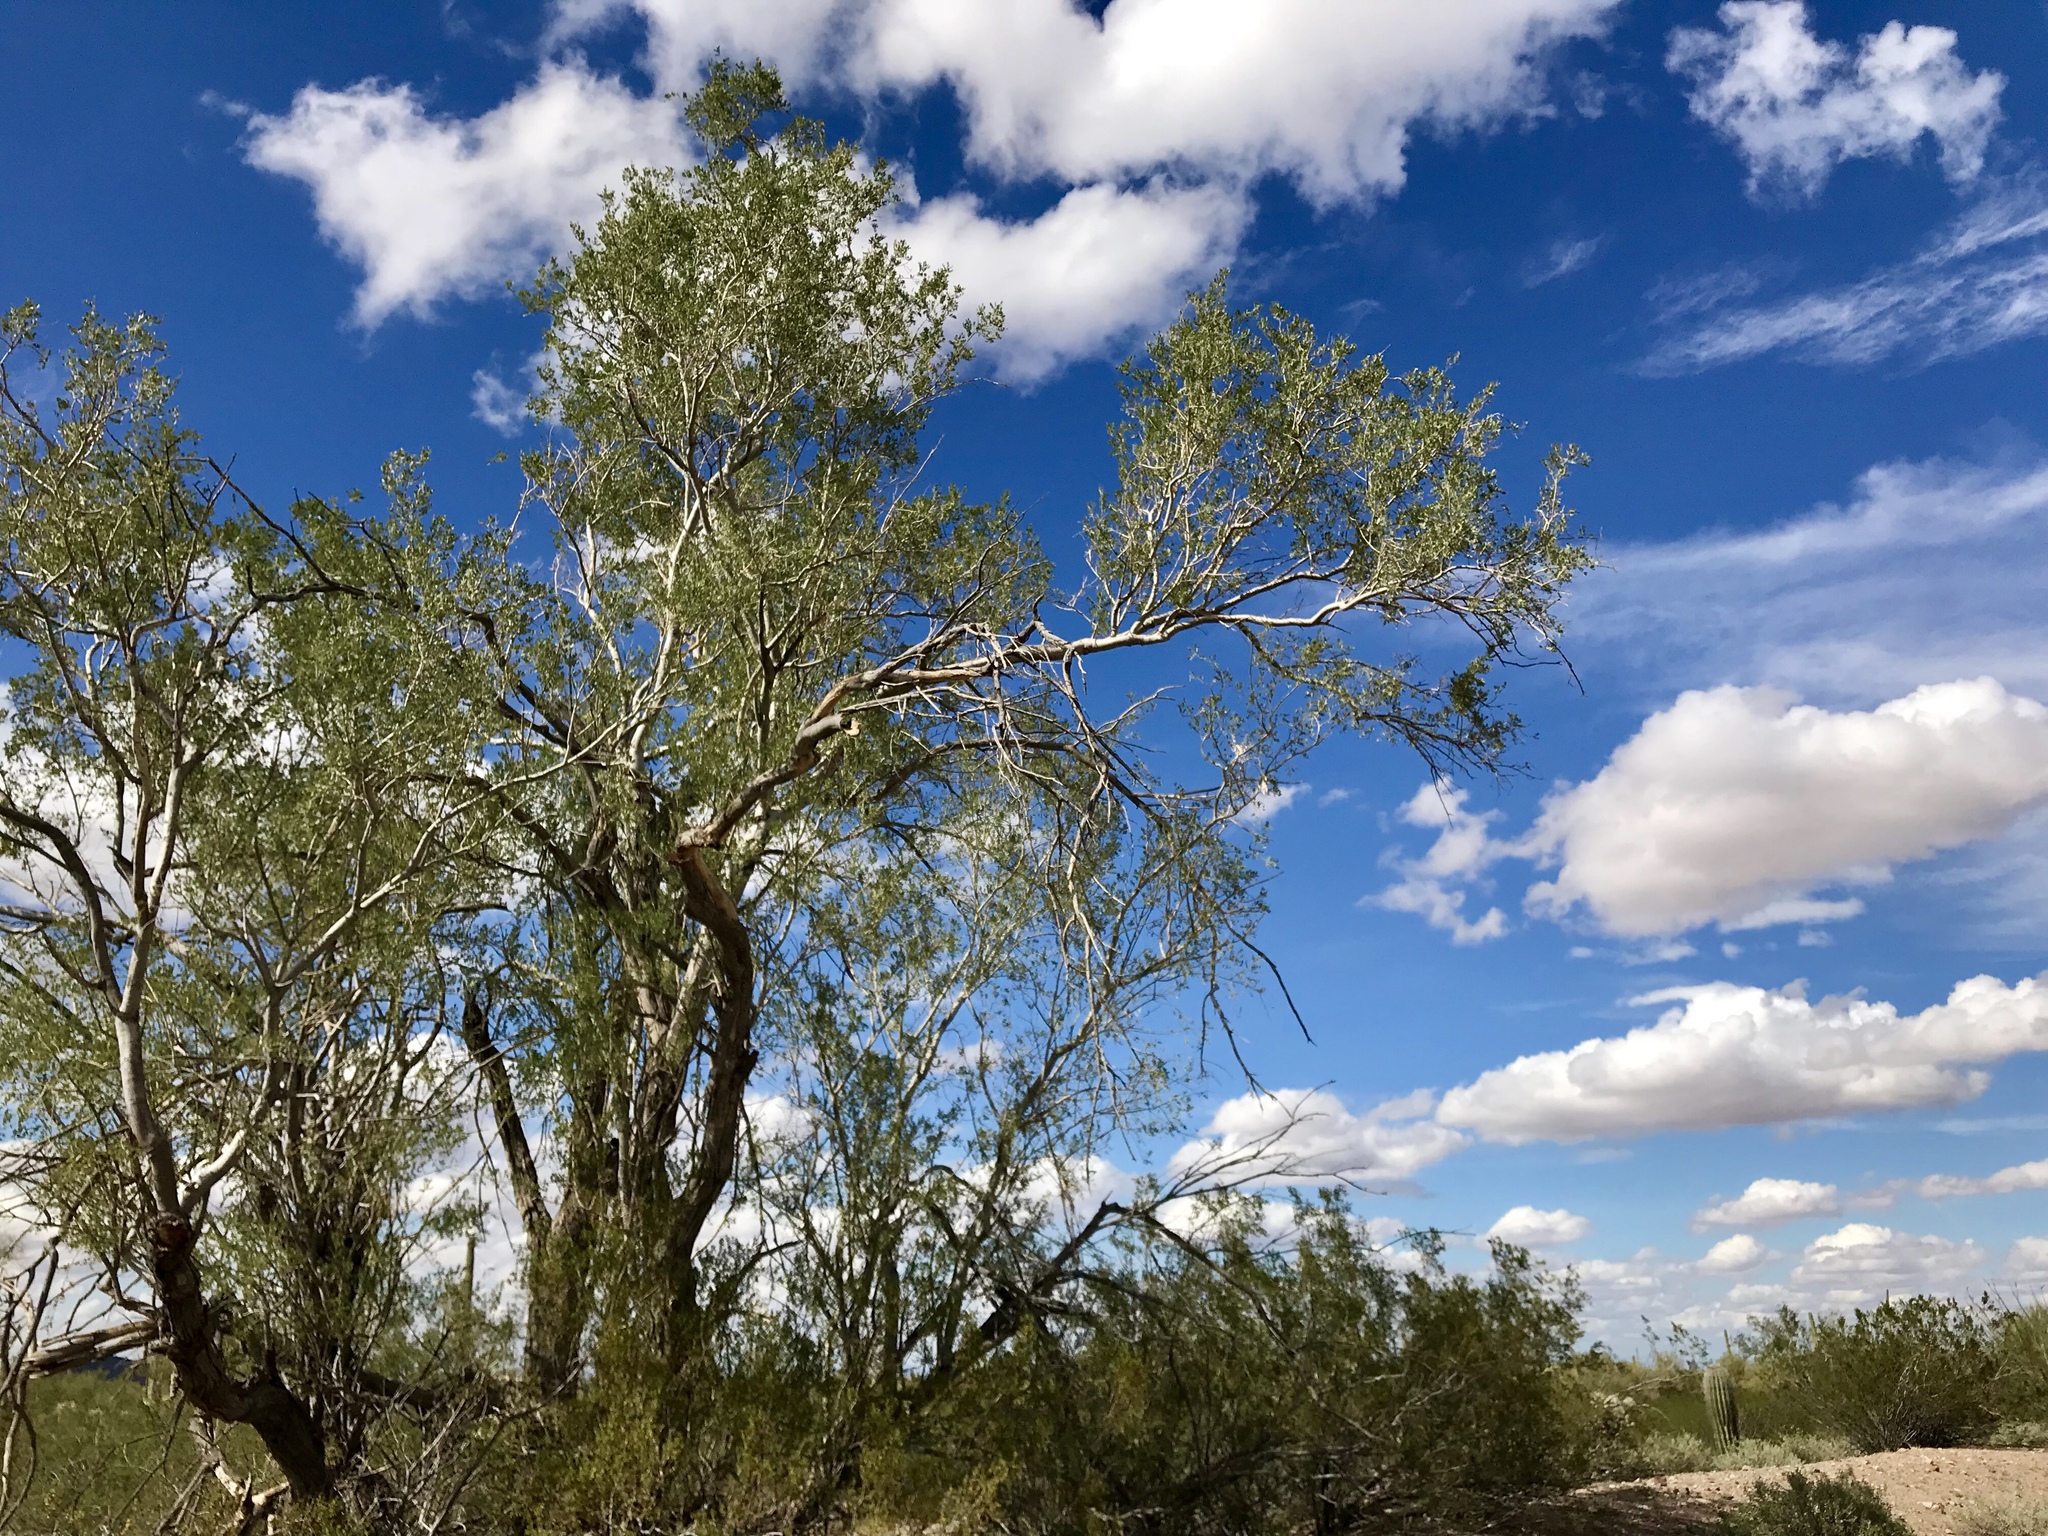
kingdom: Plantae
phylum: Tracheophyta
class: Magnoliopsida
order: Fabales
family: Fabaceae
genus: Olneya
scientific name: Olneya tesota
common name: Desert ironwood
